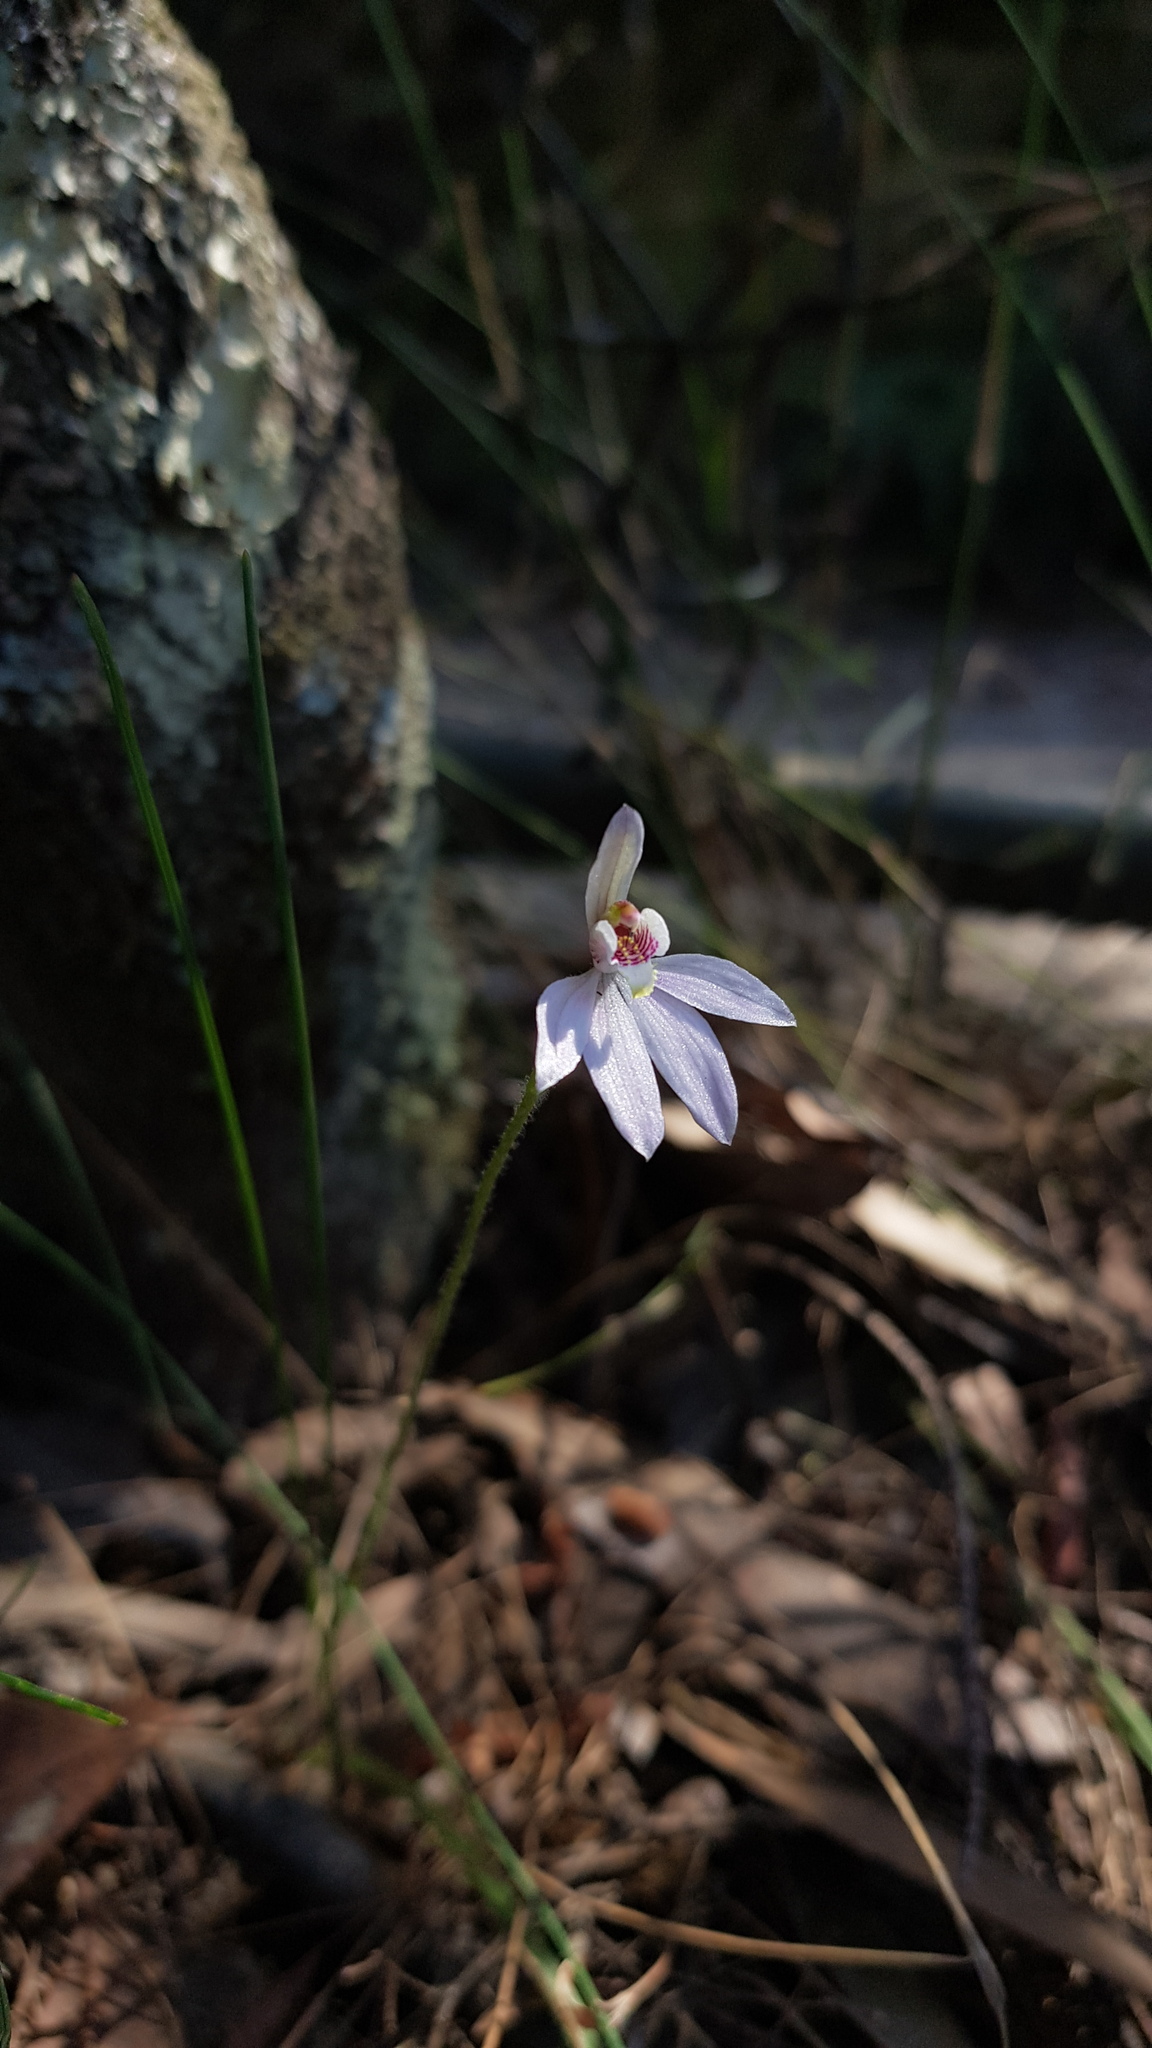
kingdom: Plantae
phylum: Tracheophyta
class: Liliopsida
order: Asparagales
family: Orchidaceae
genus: Caladenia
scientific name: Caladenia carnea
